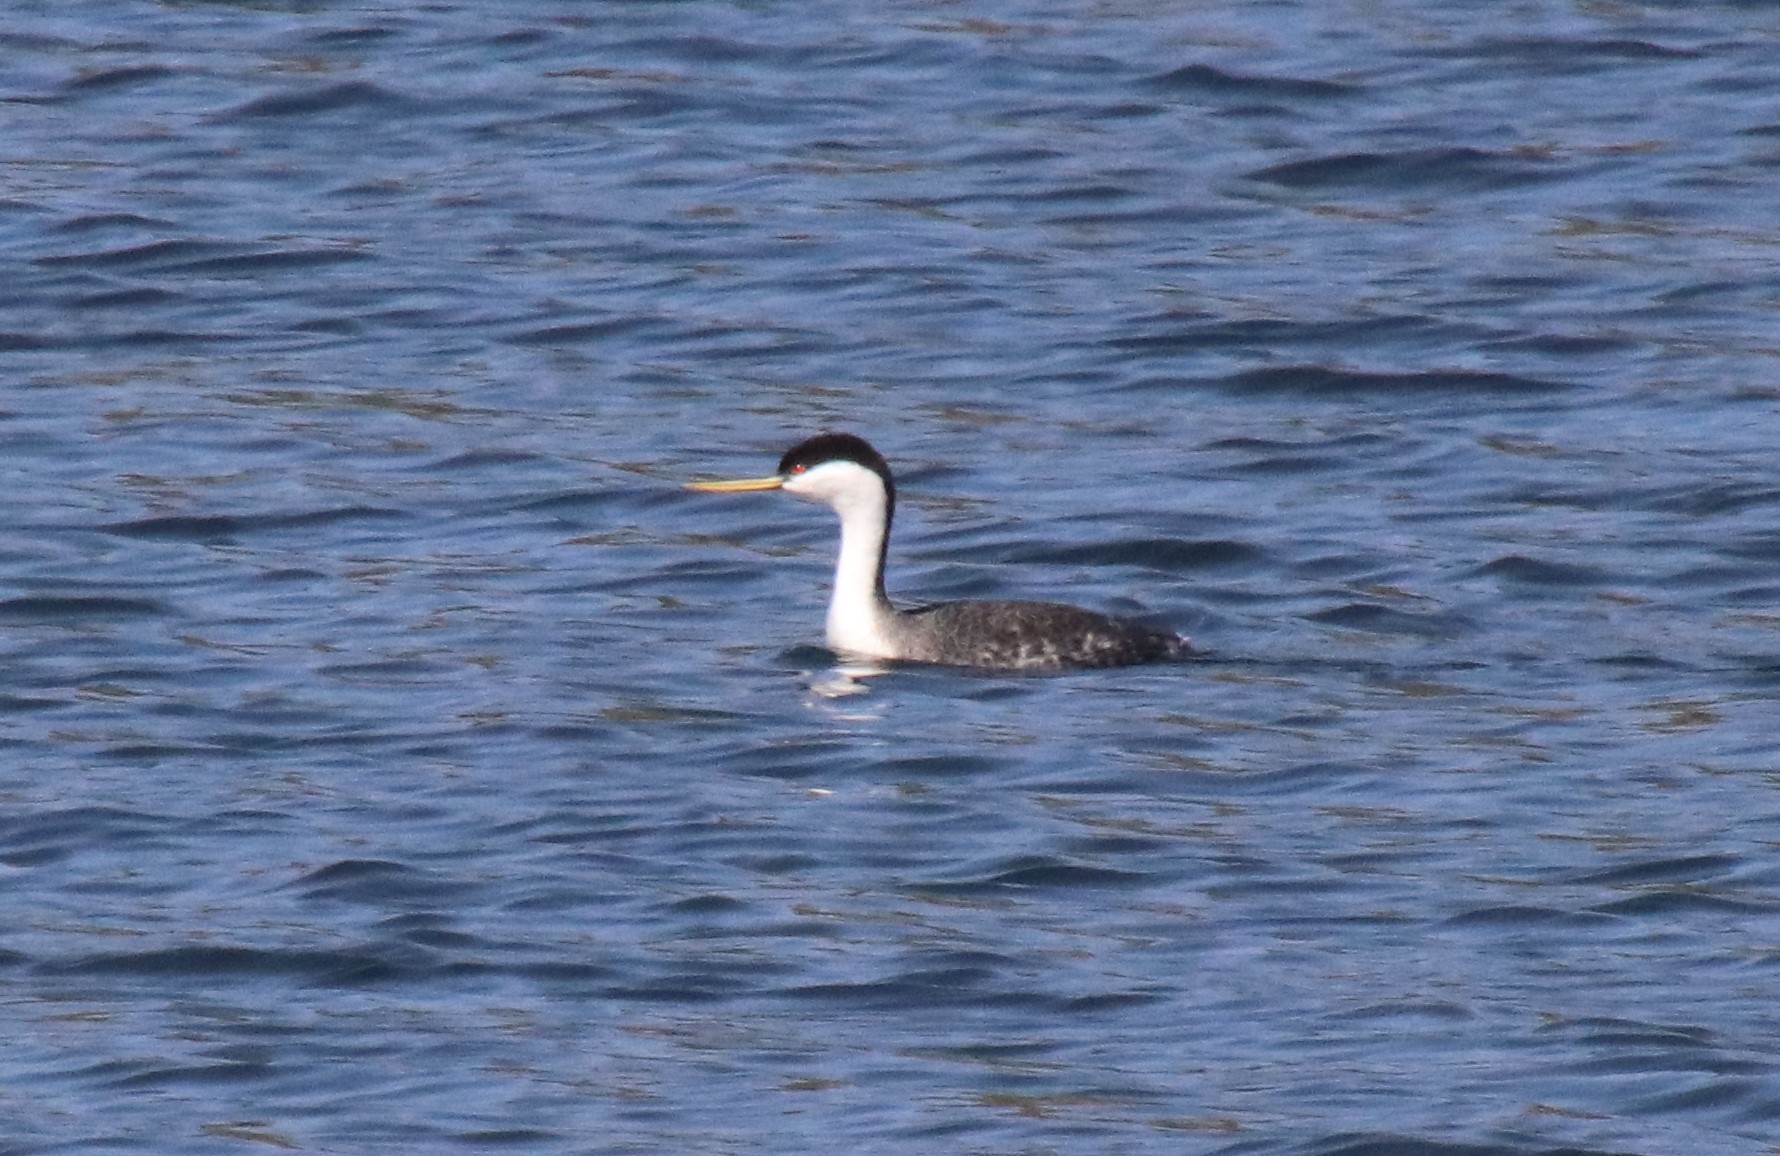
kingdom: Animalia
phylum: Chordata
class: Aves
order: Podicipediformes
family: Podicipedidae
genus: Aechmophorus
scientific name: Aechmophorus occidentalis
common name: Western grebe
